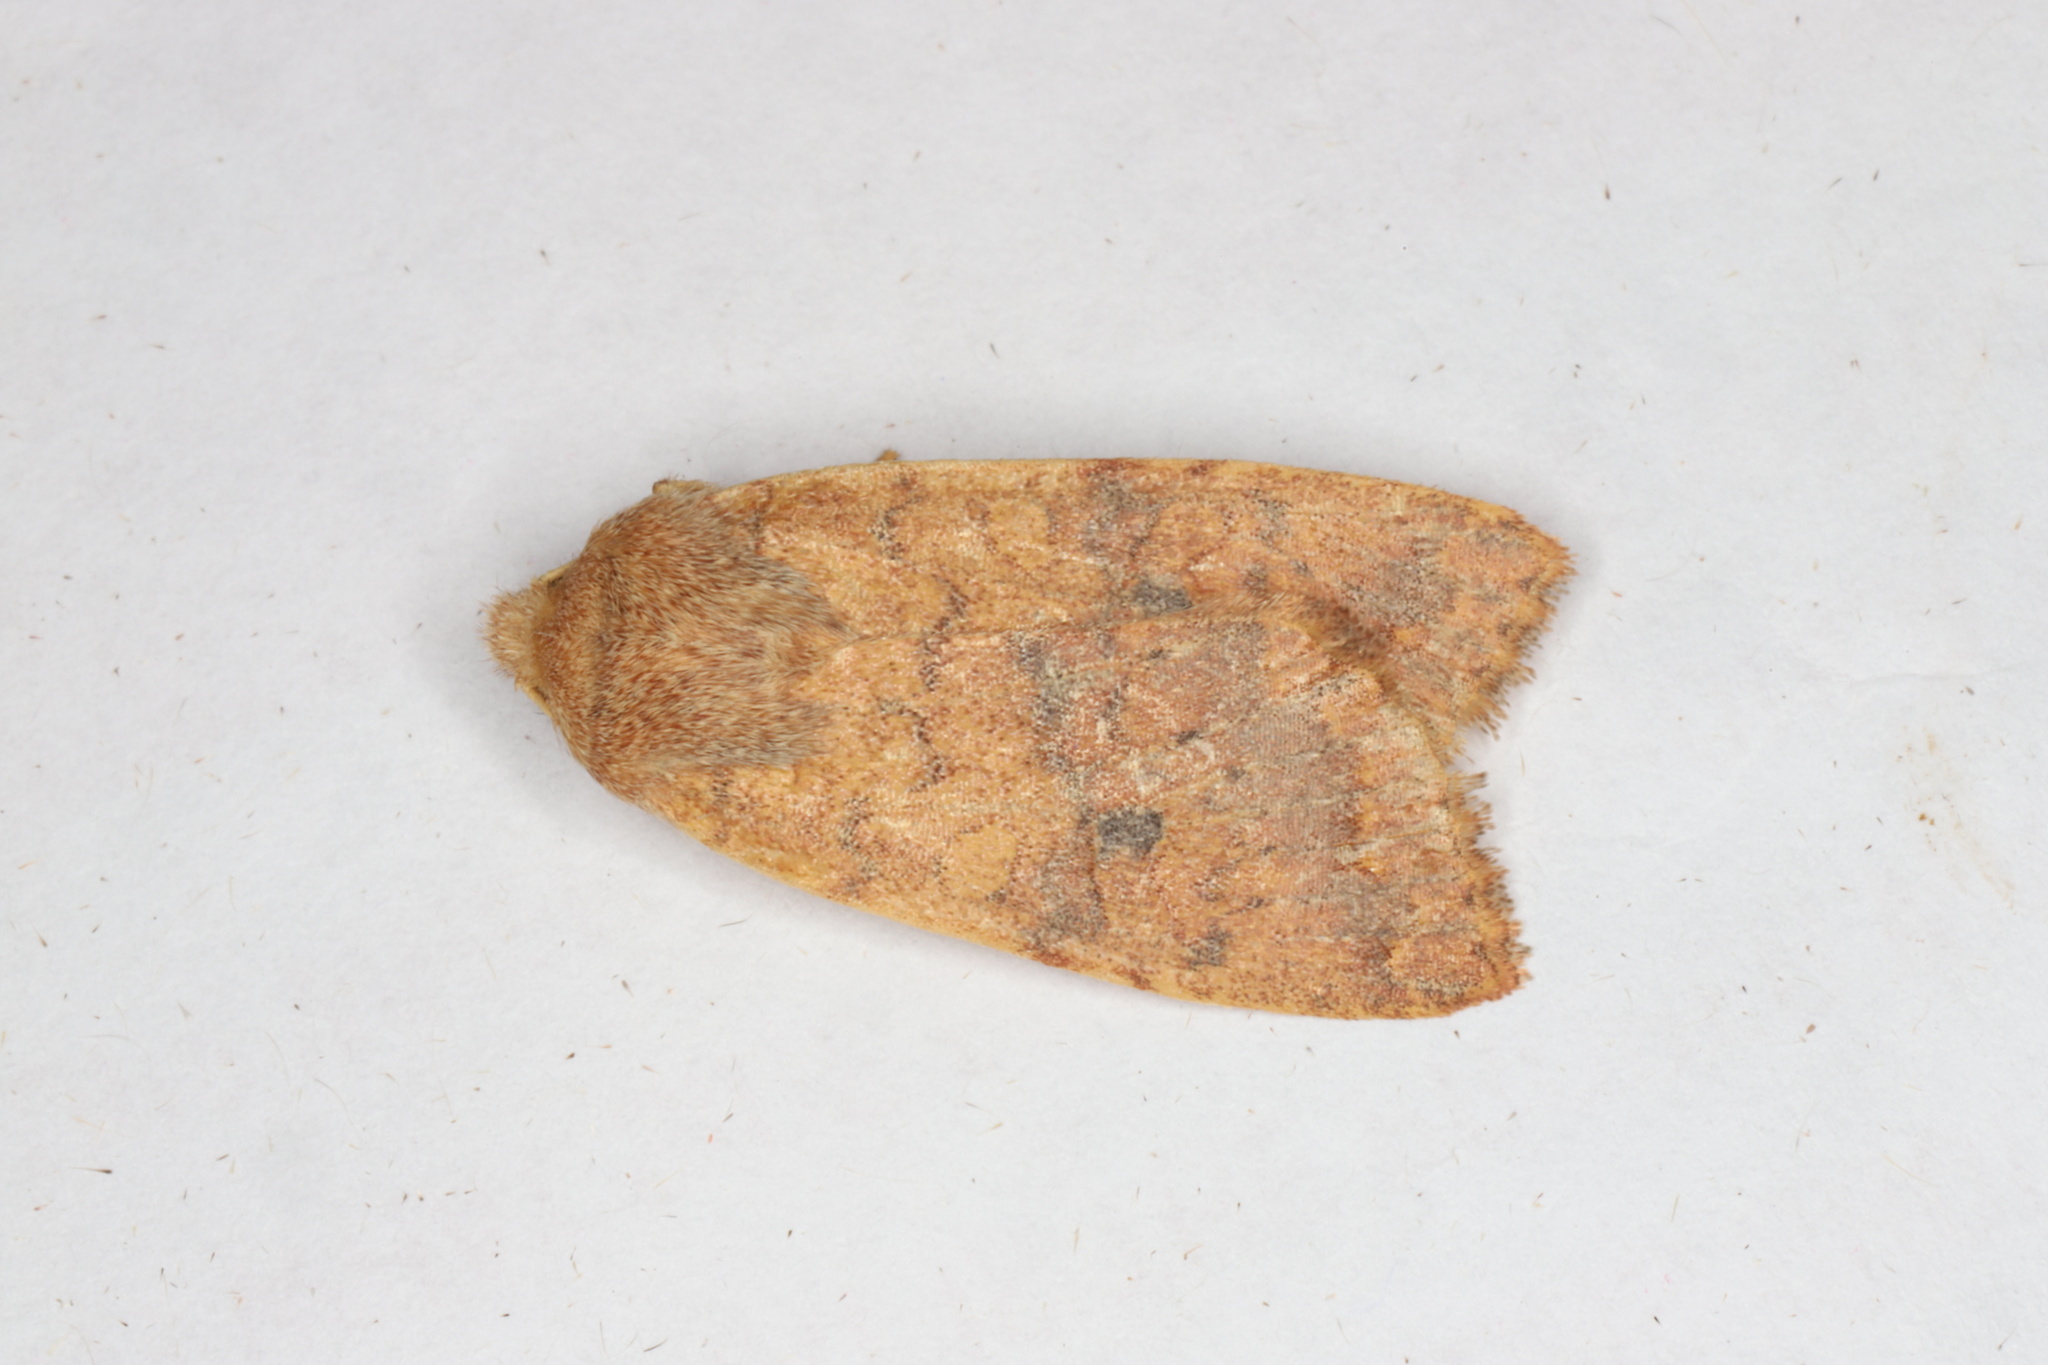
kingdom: Animalia
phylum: Arthropoda
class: Insecta
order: Lepidoptera
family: Noctuidae
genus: Agrochola
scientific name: Agrochola bicolorago
